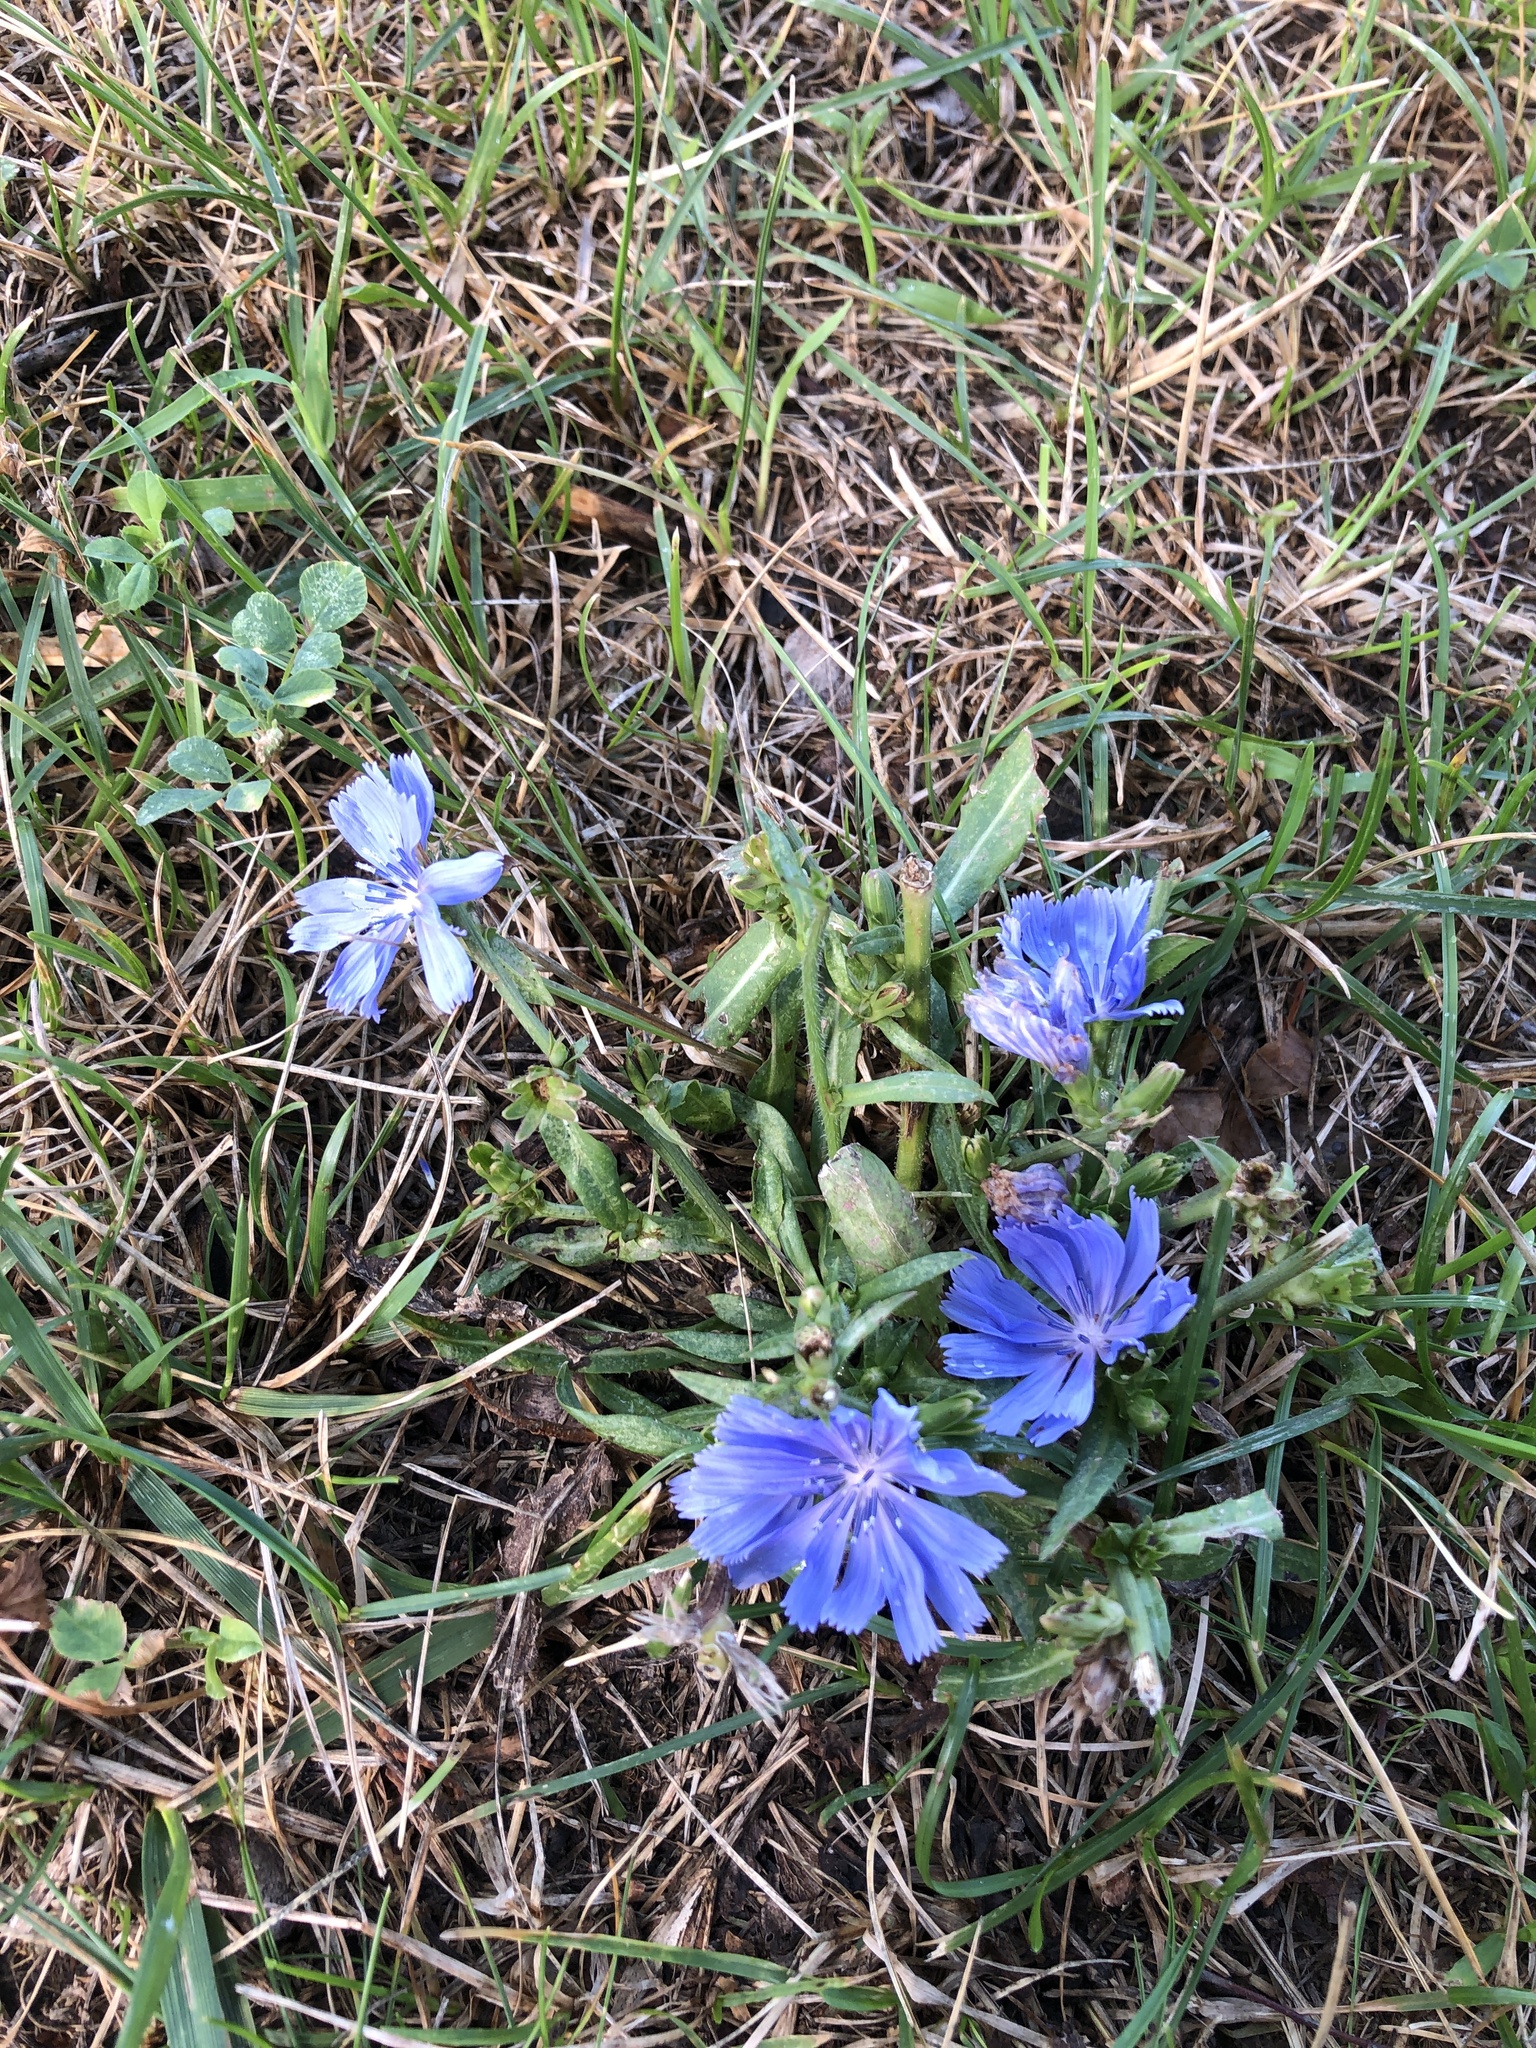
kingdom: Plantae
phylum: Tracheophyta
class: Magnoliopsida
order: Asterales
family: Asteraceae
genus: Cichorium
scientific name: Cichorium intybus
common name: Chicory
